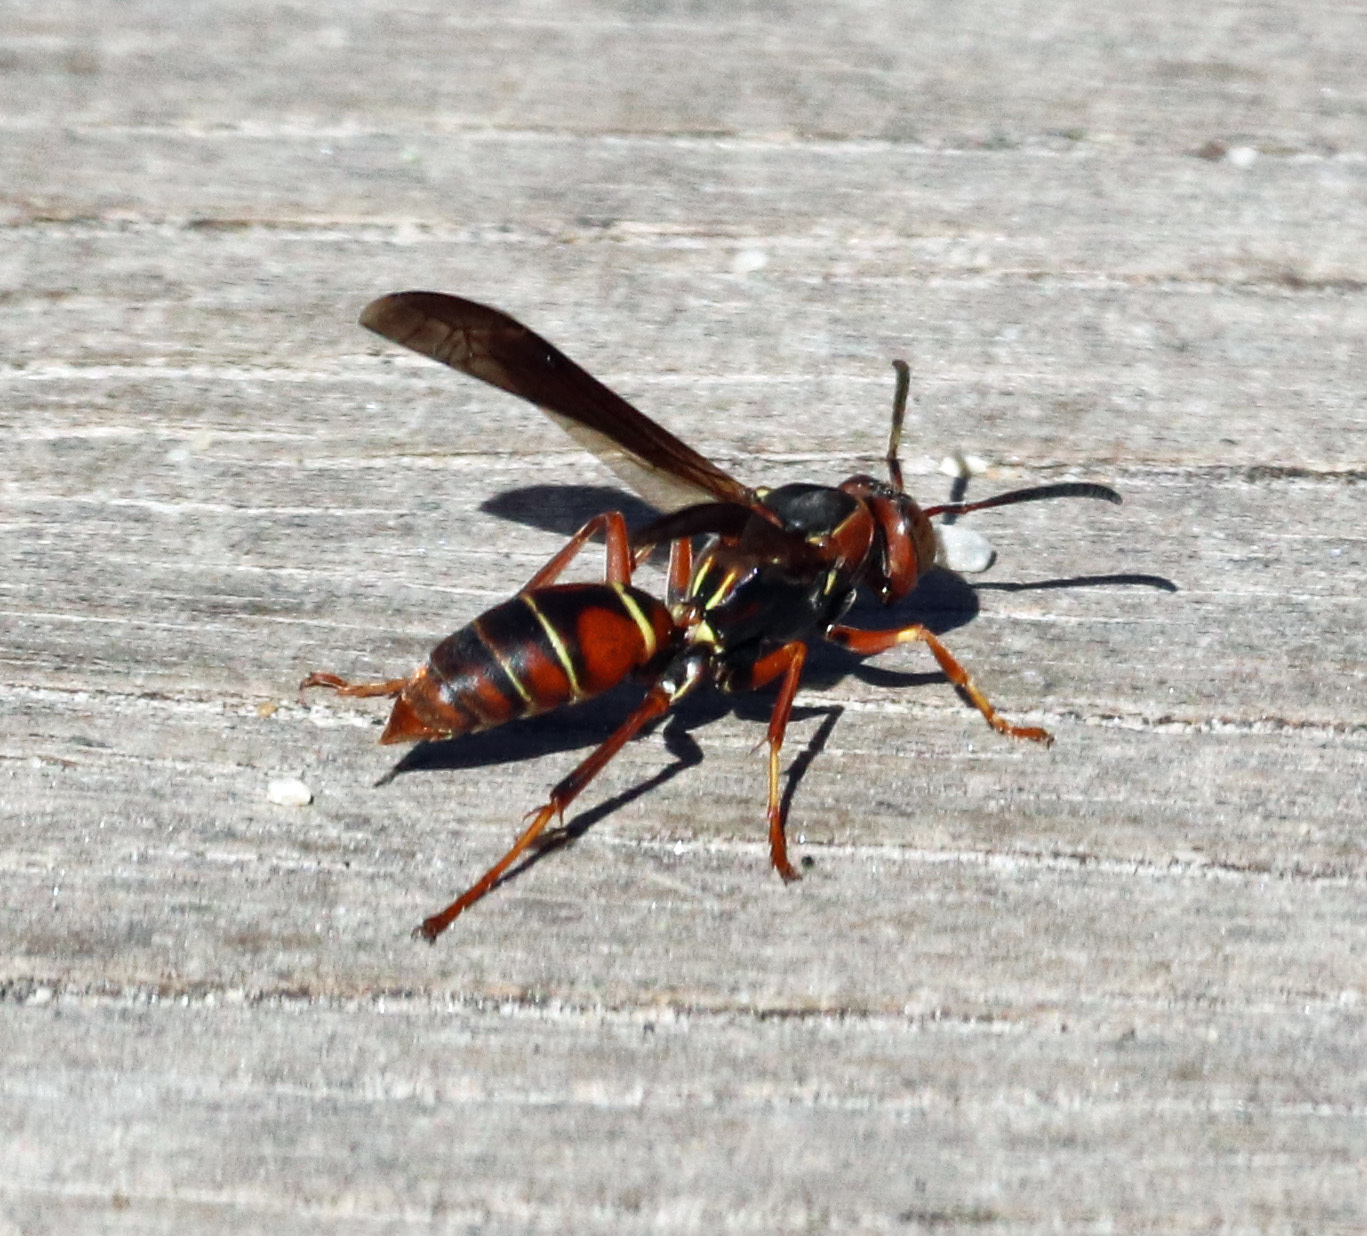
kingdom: Animalia
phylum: Arthropoda
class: Insecta
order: Hymenoptera
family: Eumenidae
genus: Polistes
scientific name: Polistes fuscatus
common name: Dark paper wasp
